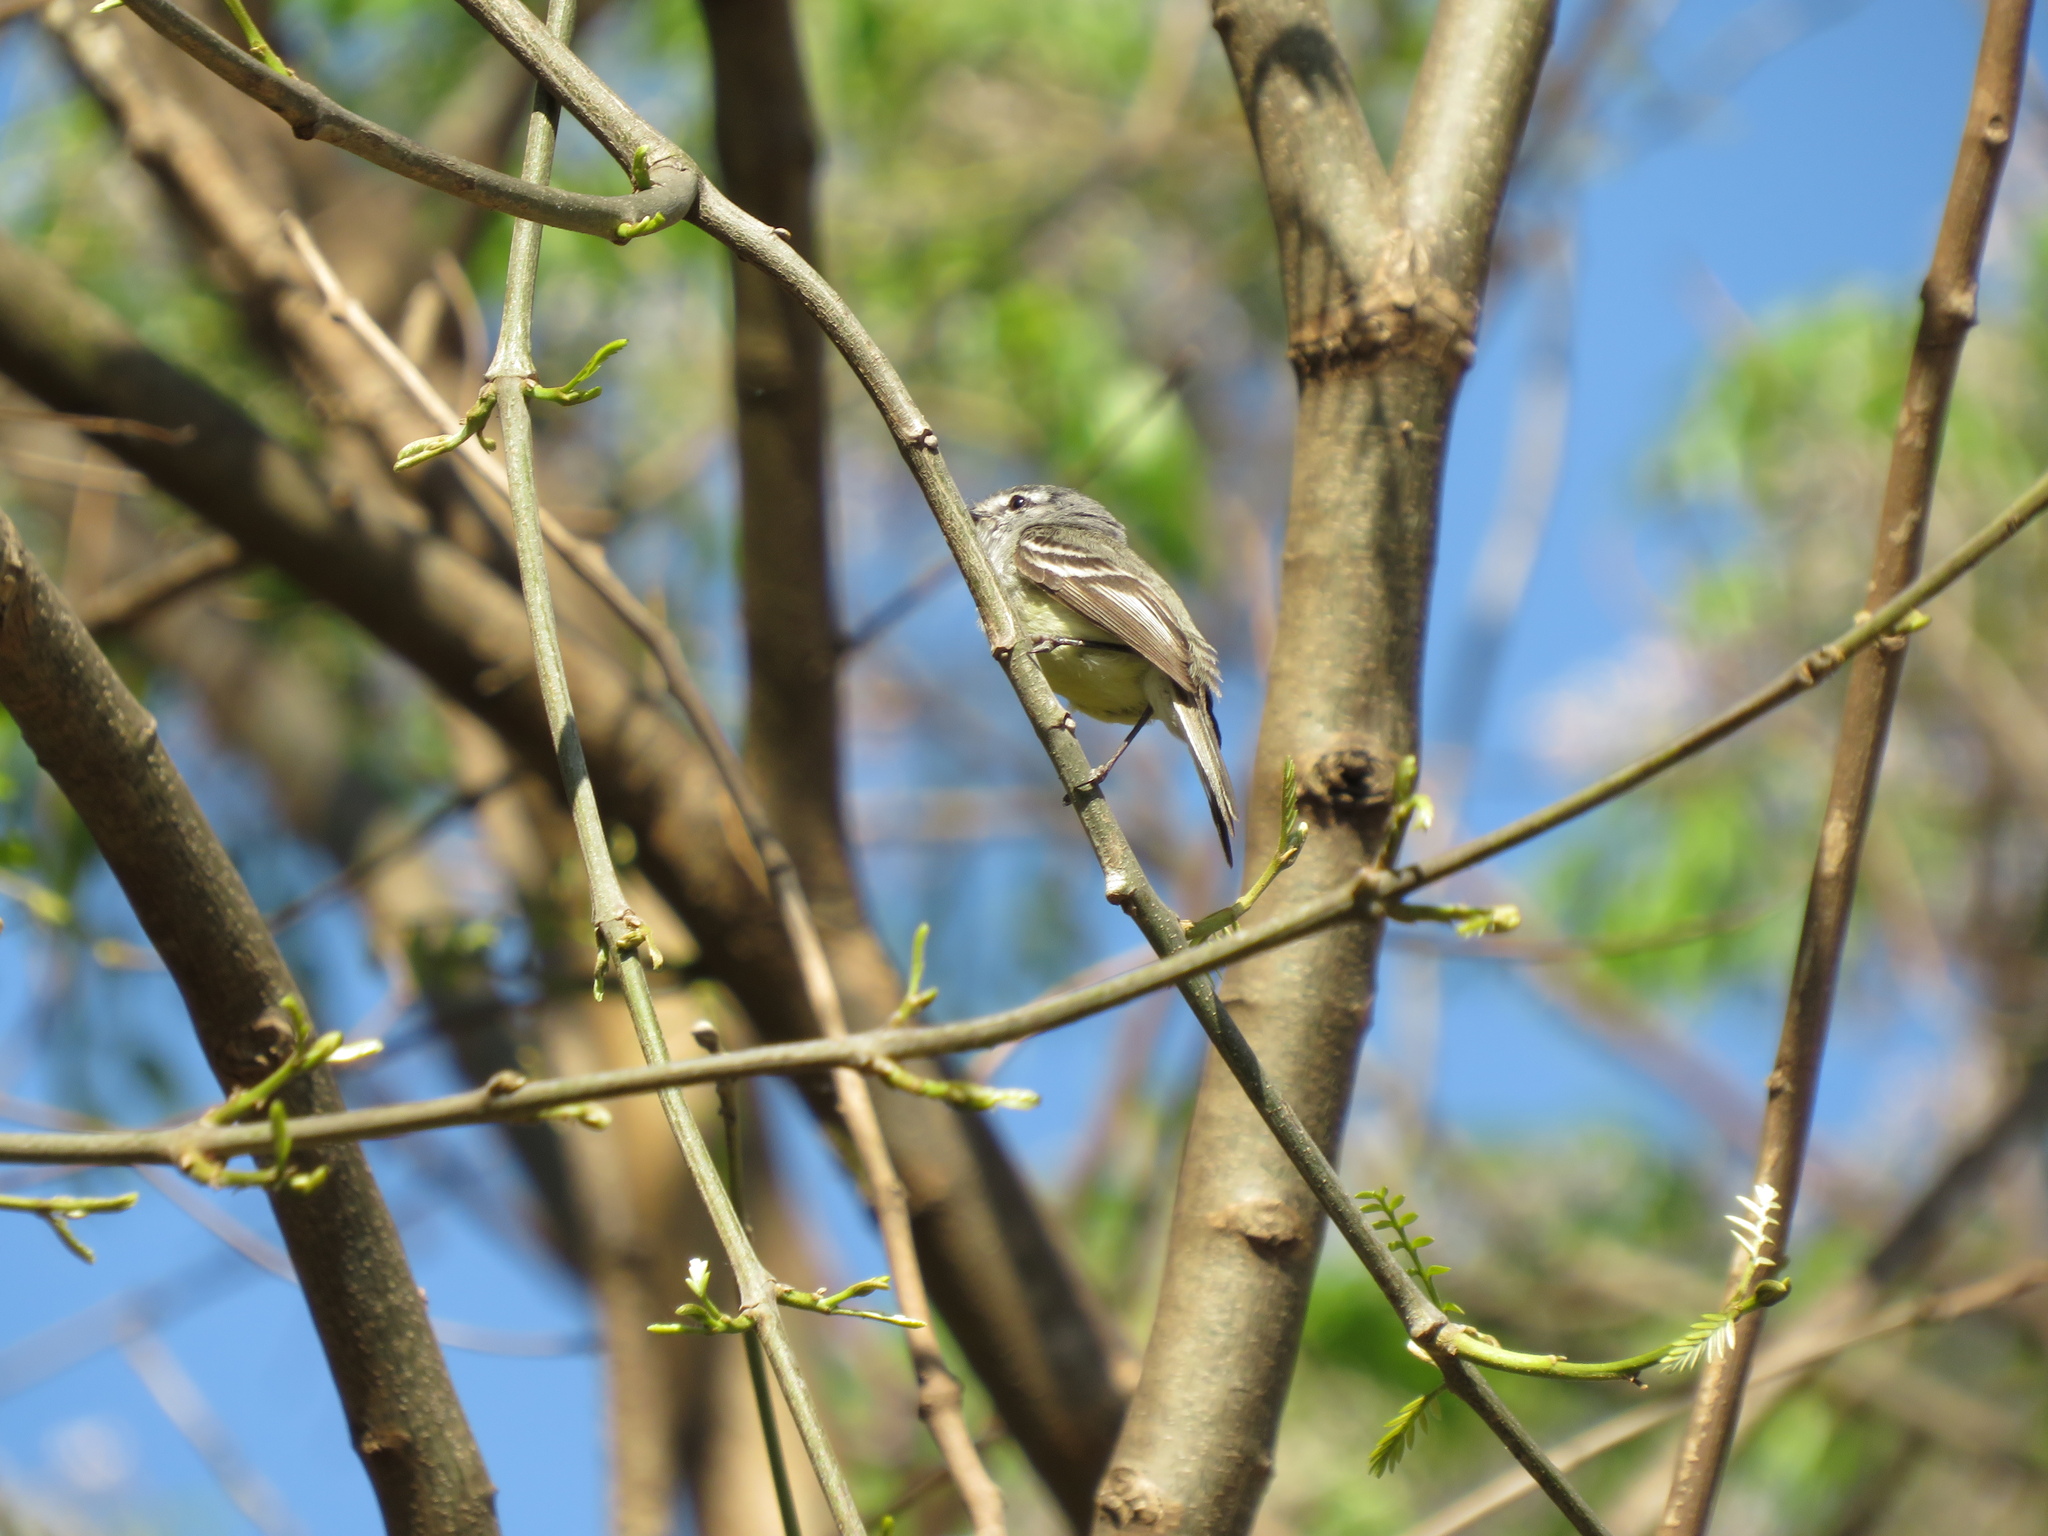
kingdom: Animalia
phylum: Chordata
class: Aves
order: Passeriformes
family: Tyrannidae
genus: Serpophaga
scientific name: Serpophaga
